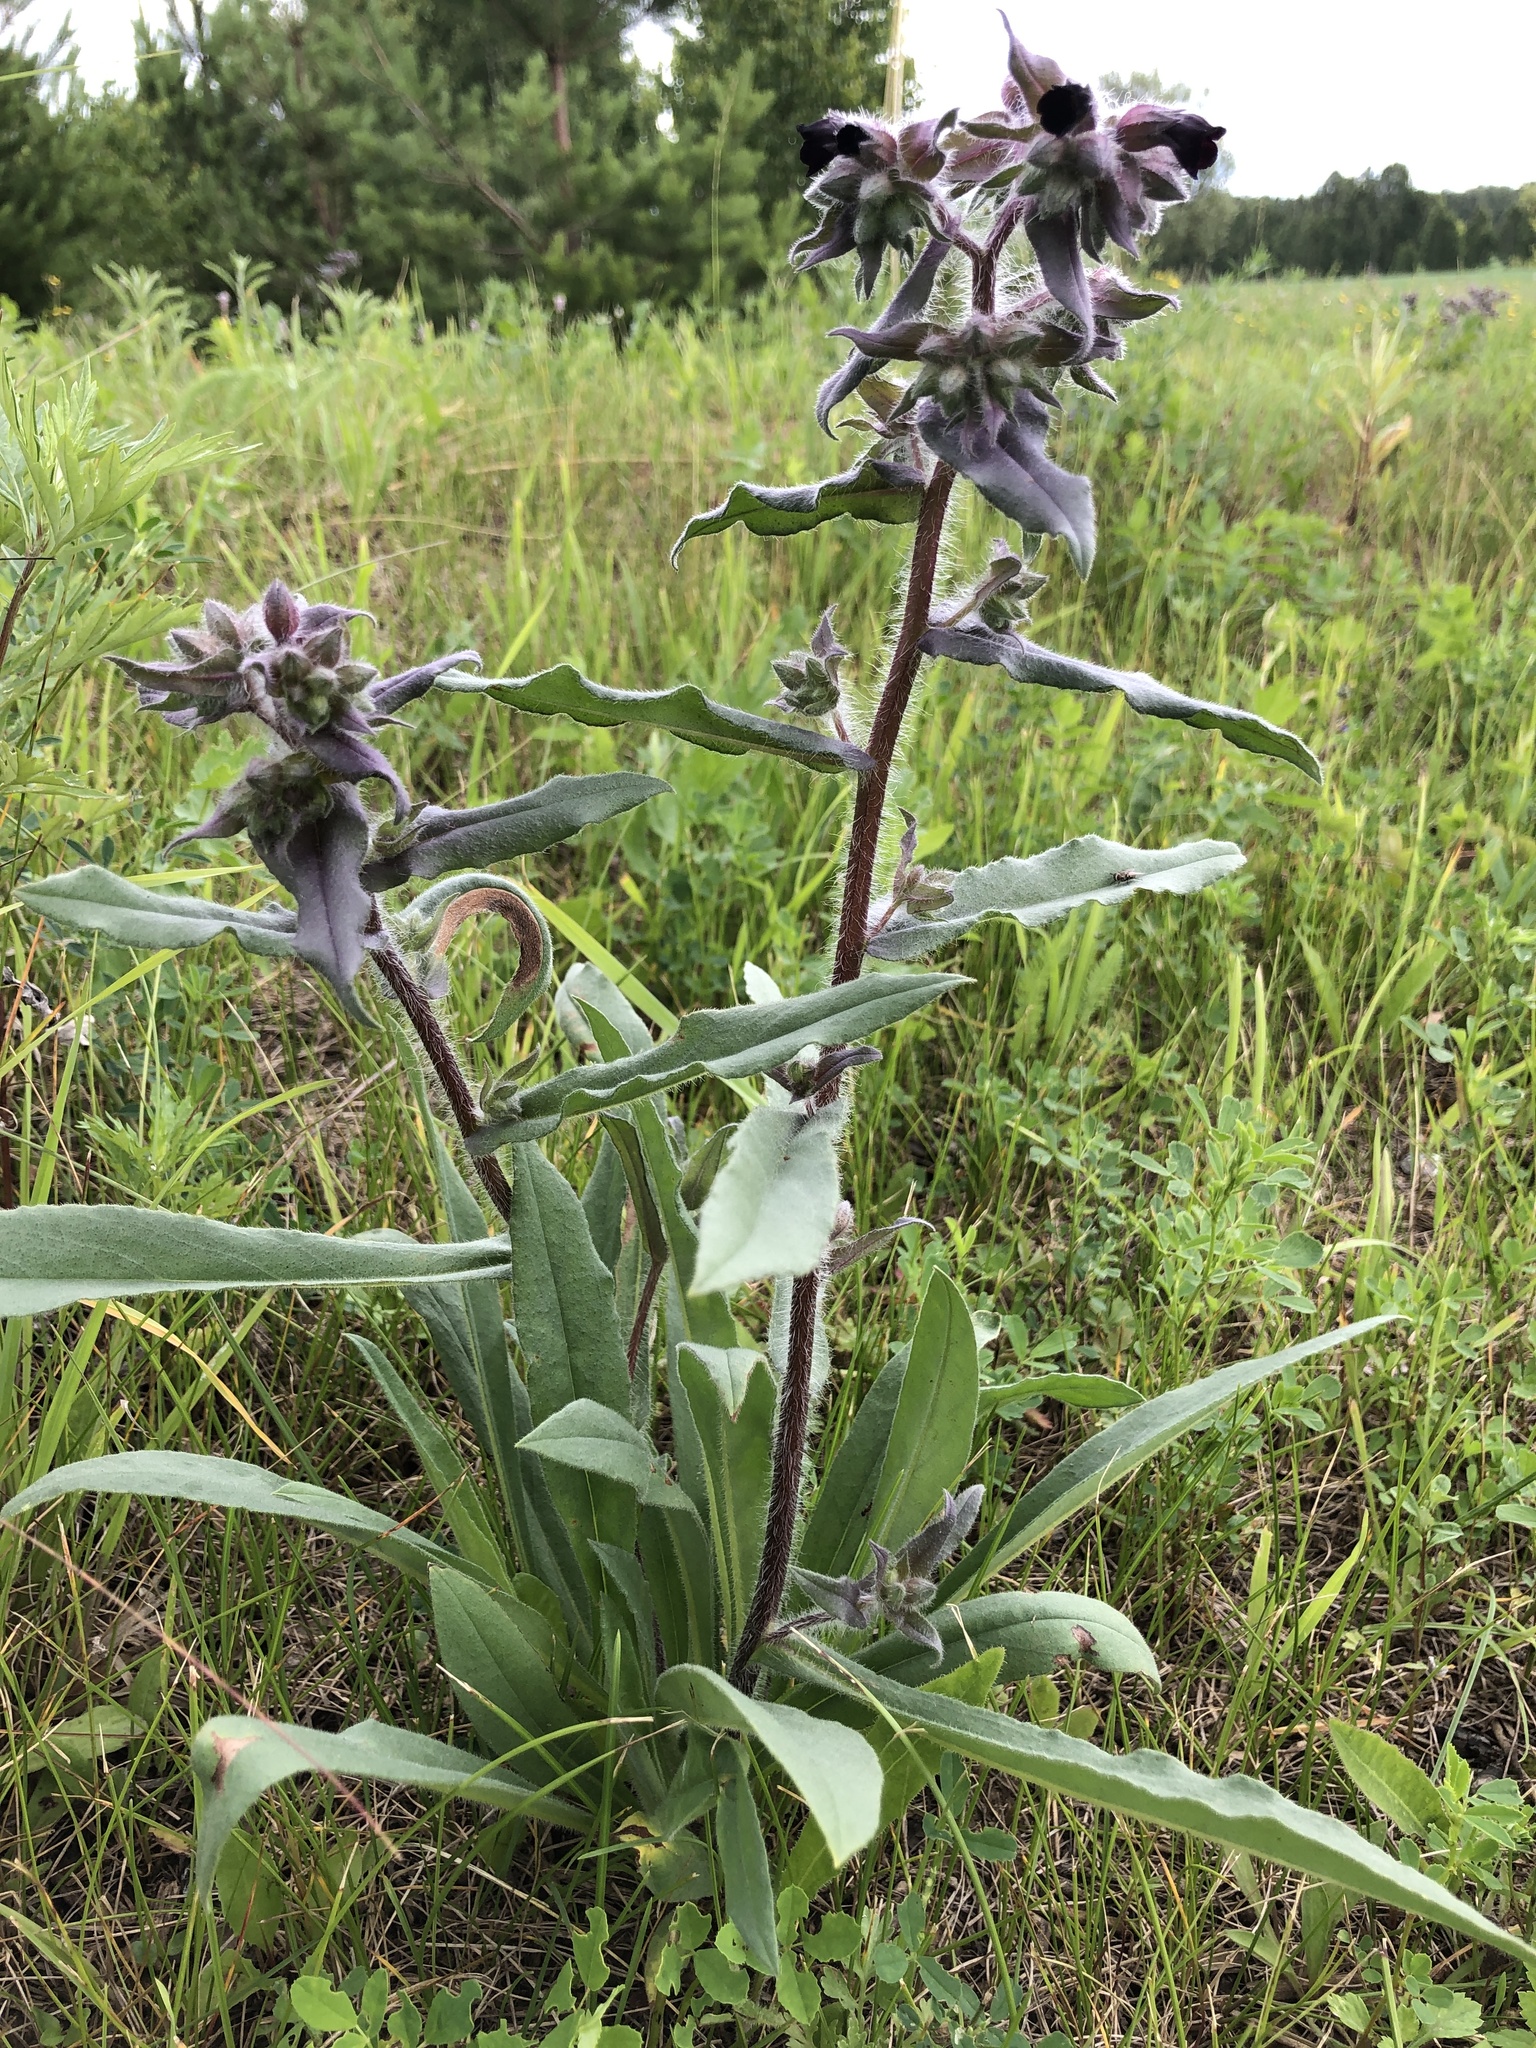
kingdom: Plantae
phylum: Tracheophyta
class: Magnoliopsida
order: Boraginales
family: Boraginaceae
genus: Nonea
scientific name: Nonea pulla
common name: Brown nonea
